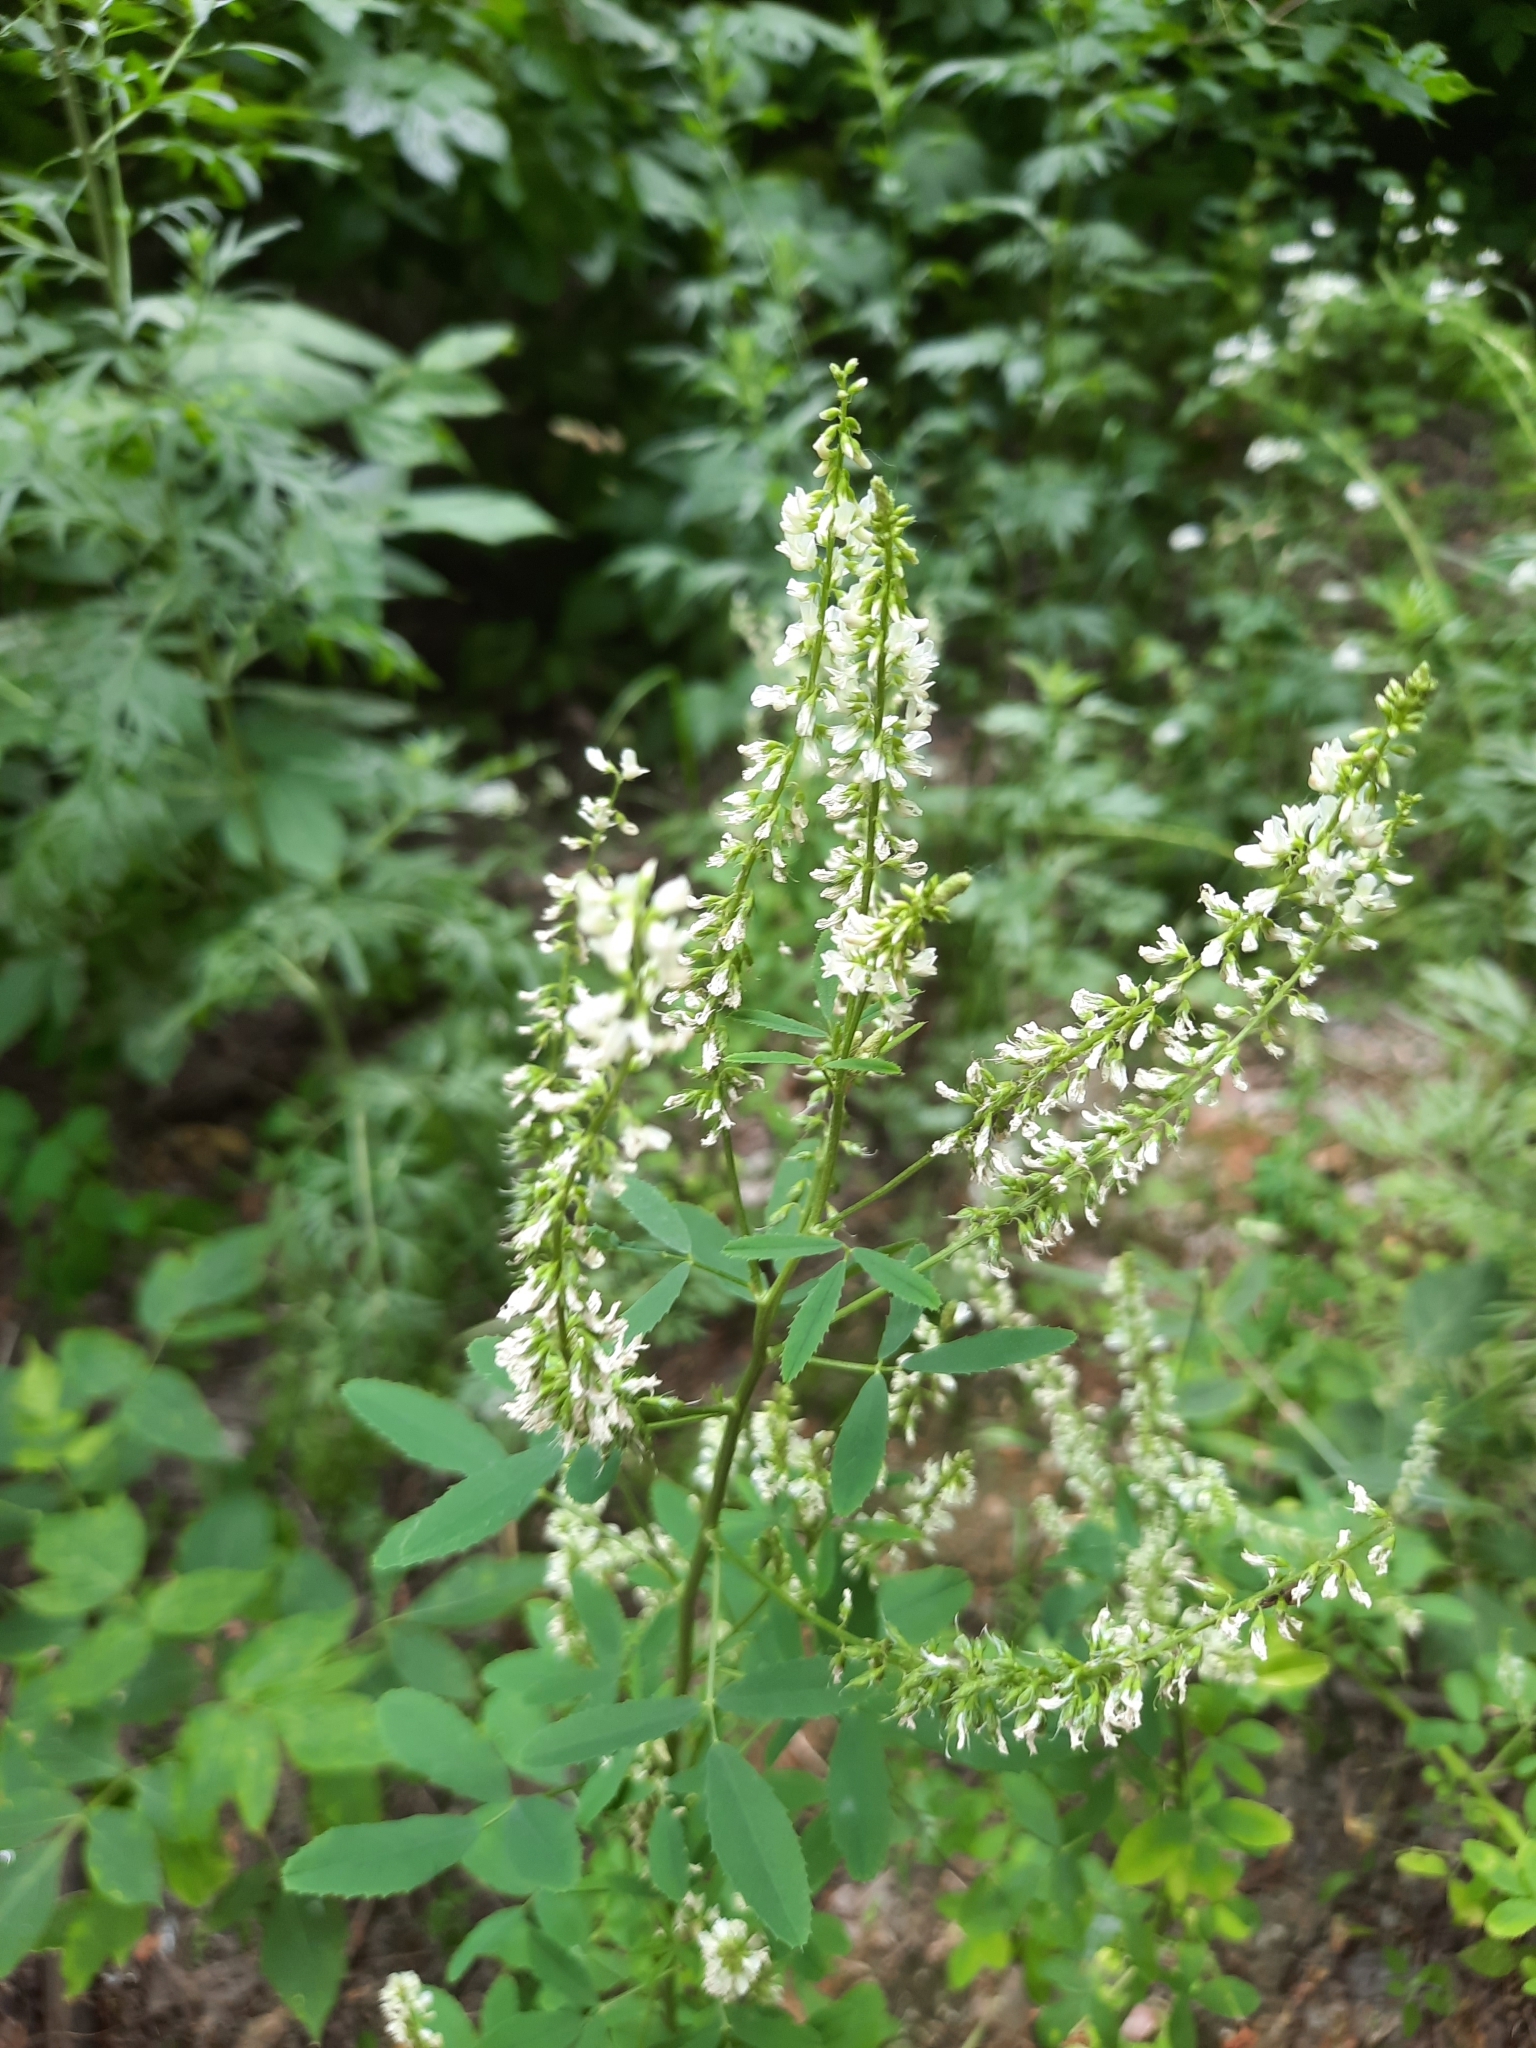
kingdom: Plantae
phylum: Tracheophyta
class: Magnoliopsida
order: Fabales
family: Fabaceae
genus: Melilotus
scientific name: Melilotus albus
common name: White melilot
